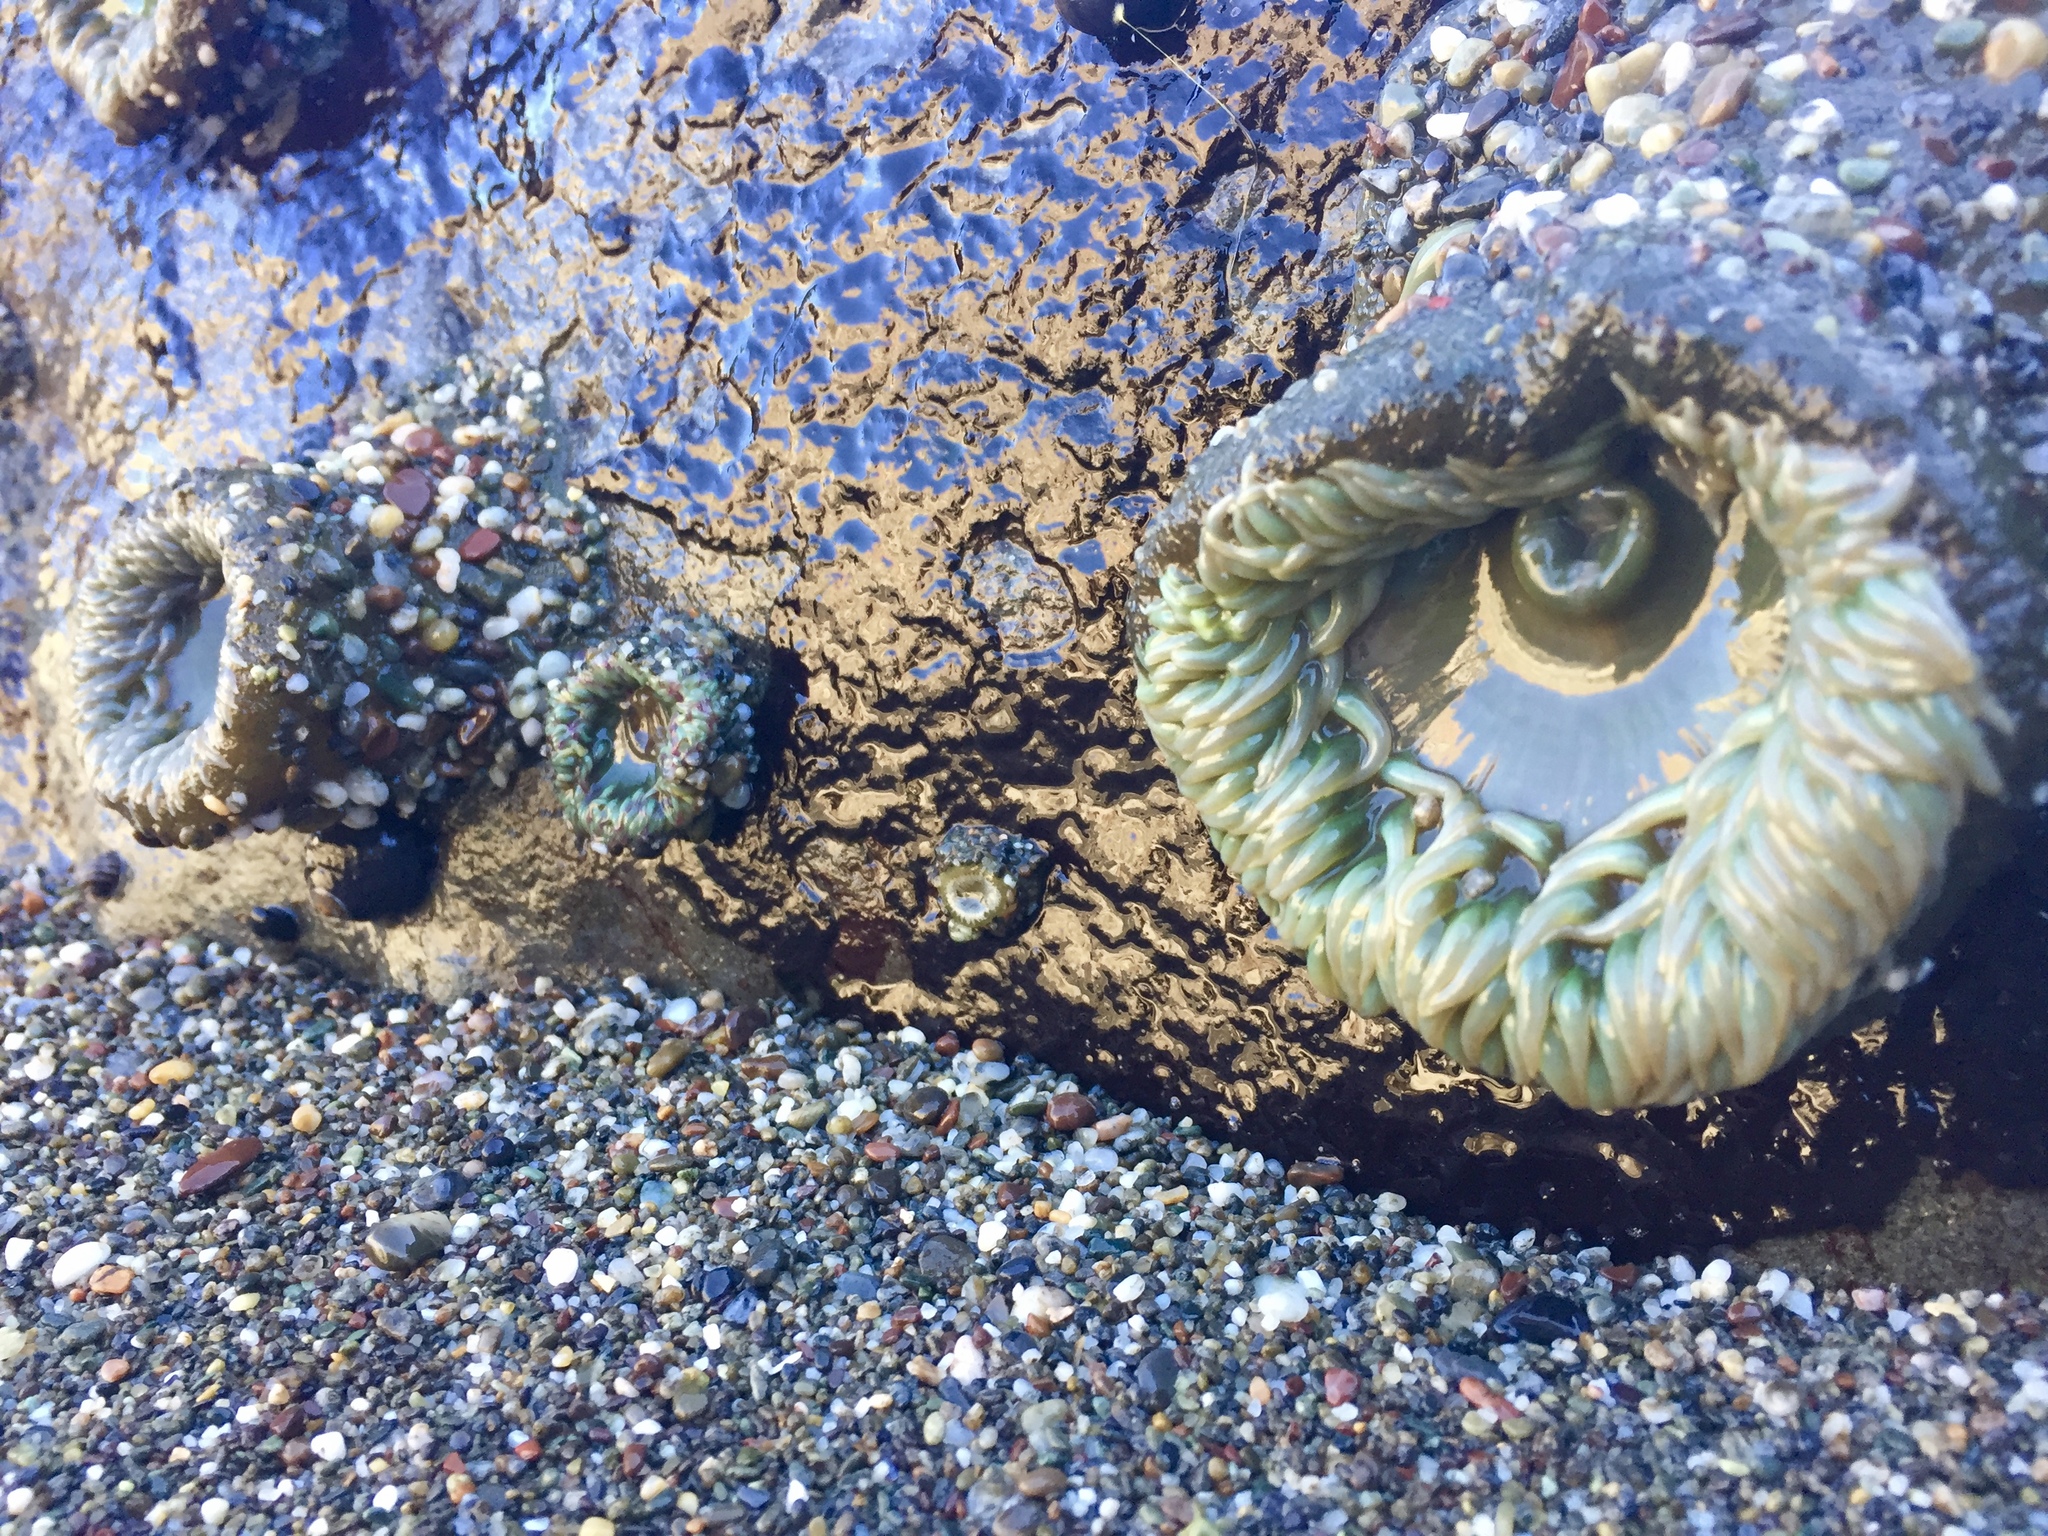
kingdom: Animalia
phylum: Cnidaria
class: Anthozoa
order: Actiniaria
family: Actiniidae
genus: Anthopleura
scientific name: Anthopleura xanthogrammica
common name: Giant green anemone
